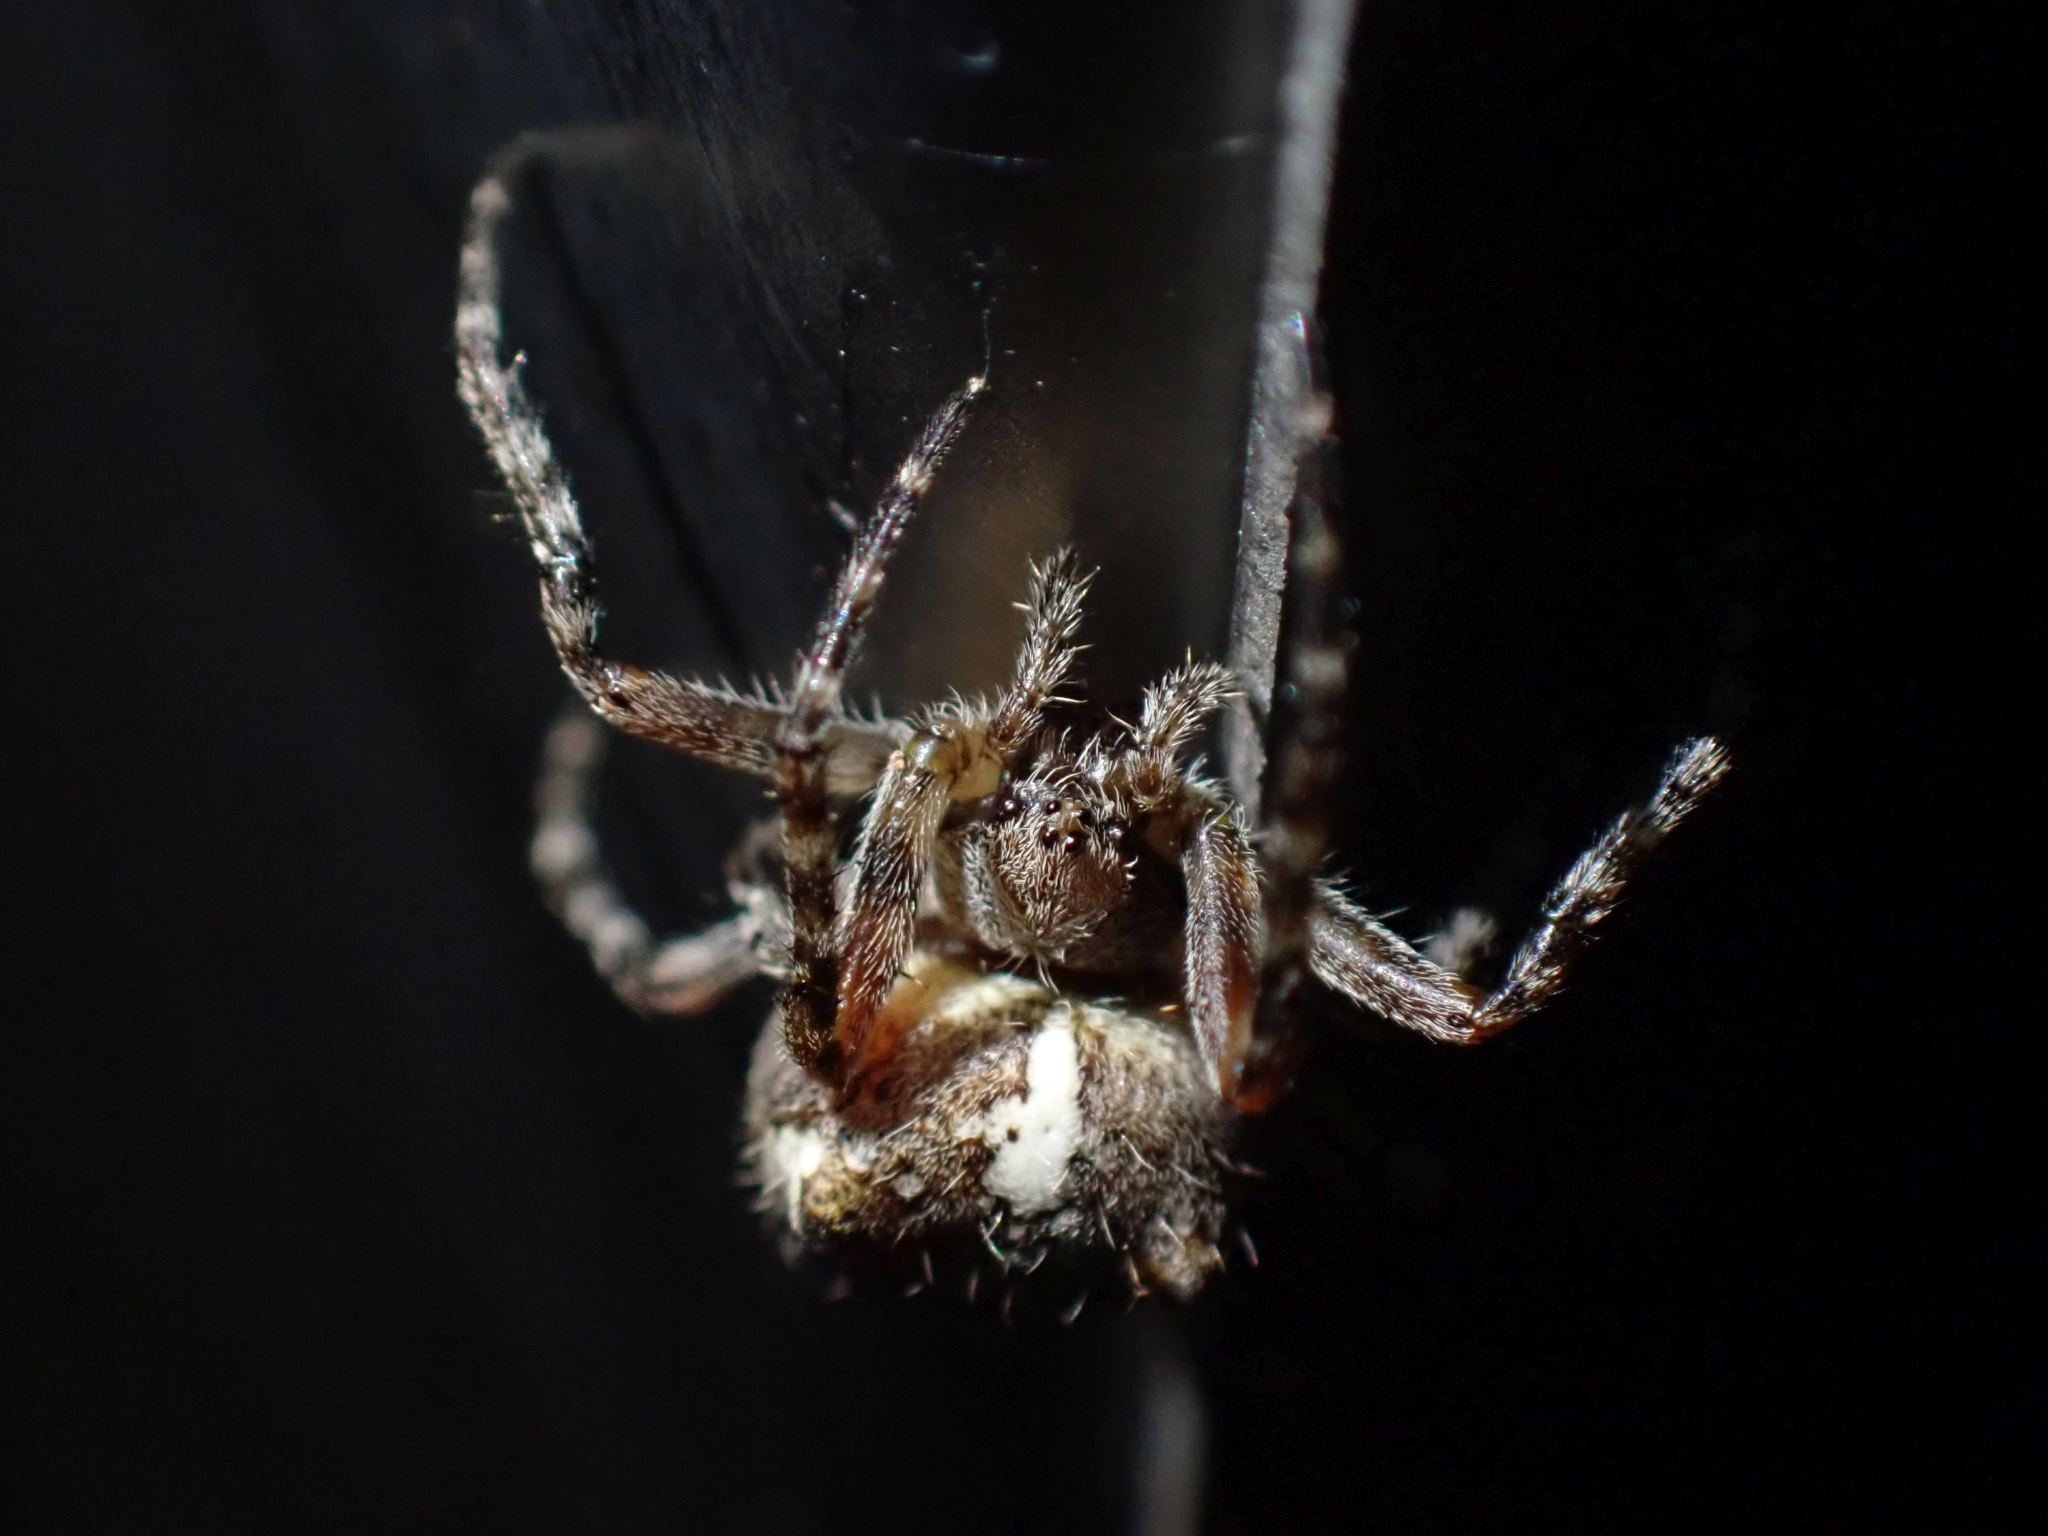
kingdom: Animalia
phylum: Arthropoda
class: Arachnida
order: Araneae
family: Araneidae
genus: Araneus
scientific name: Araneus nordmanni
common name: Nordmann's orbweaver
